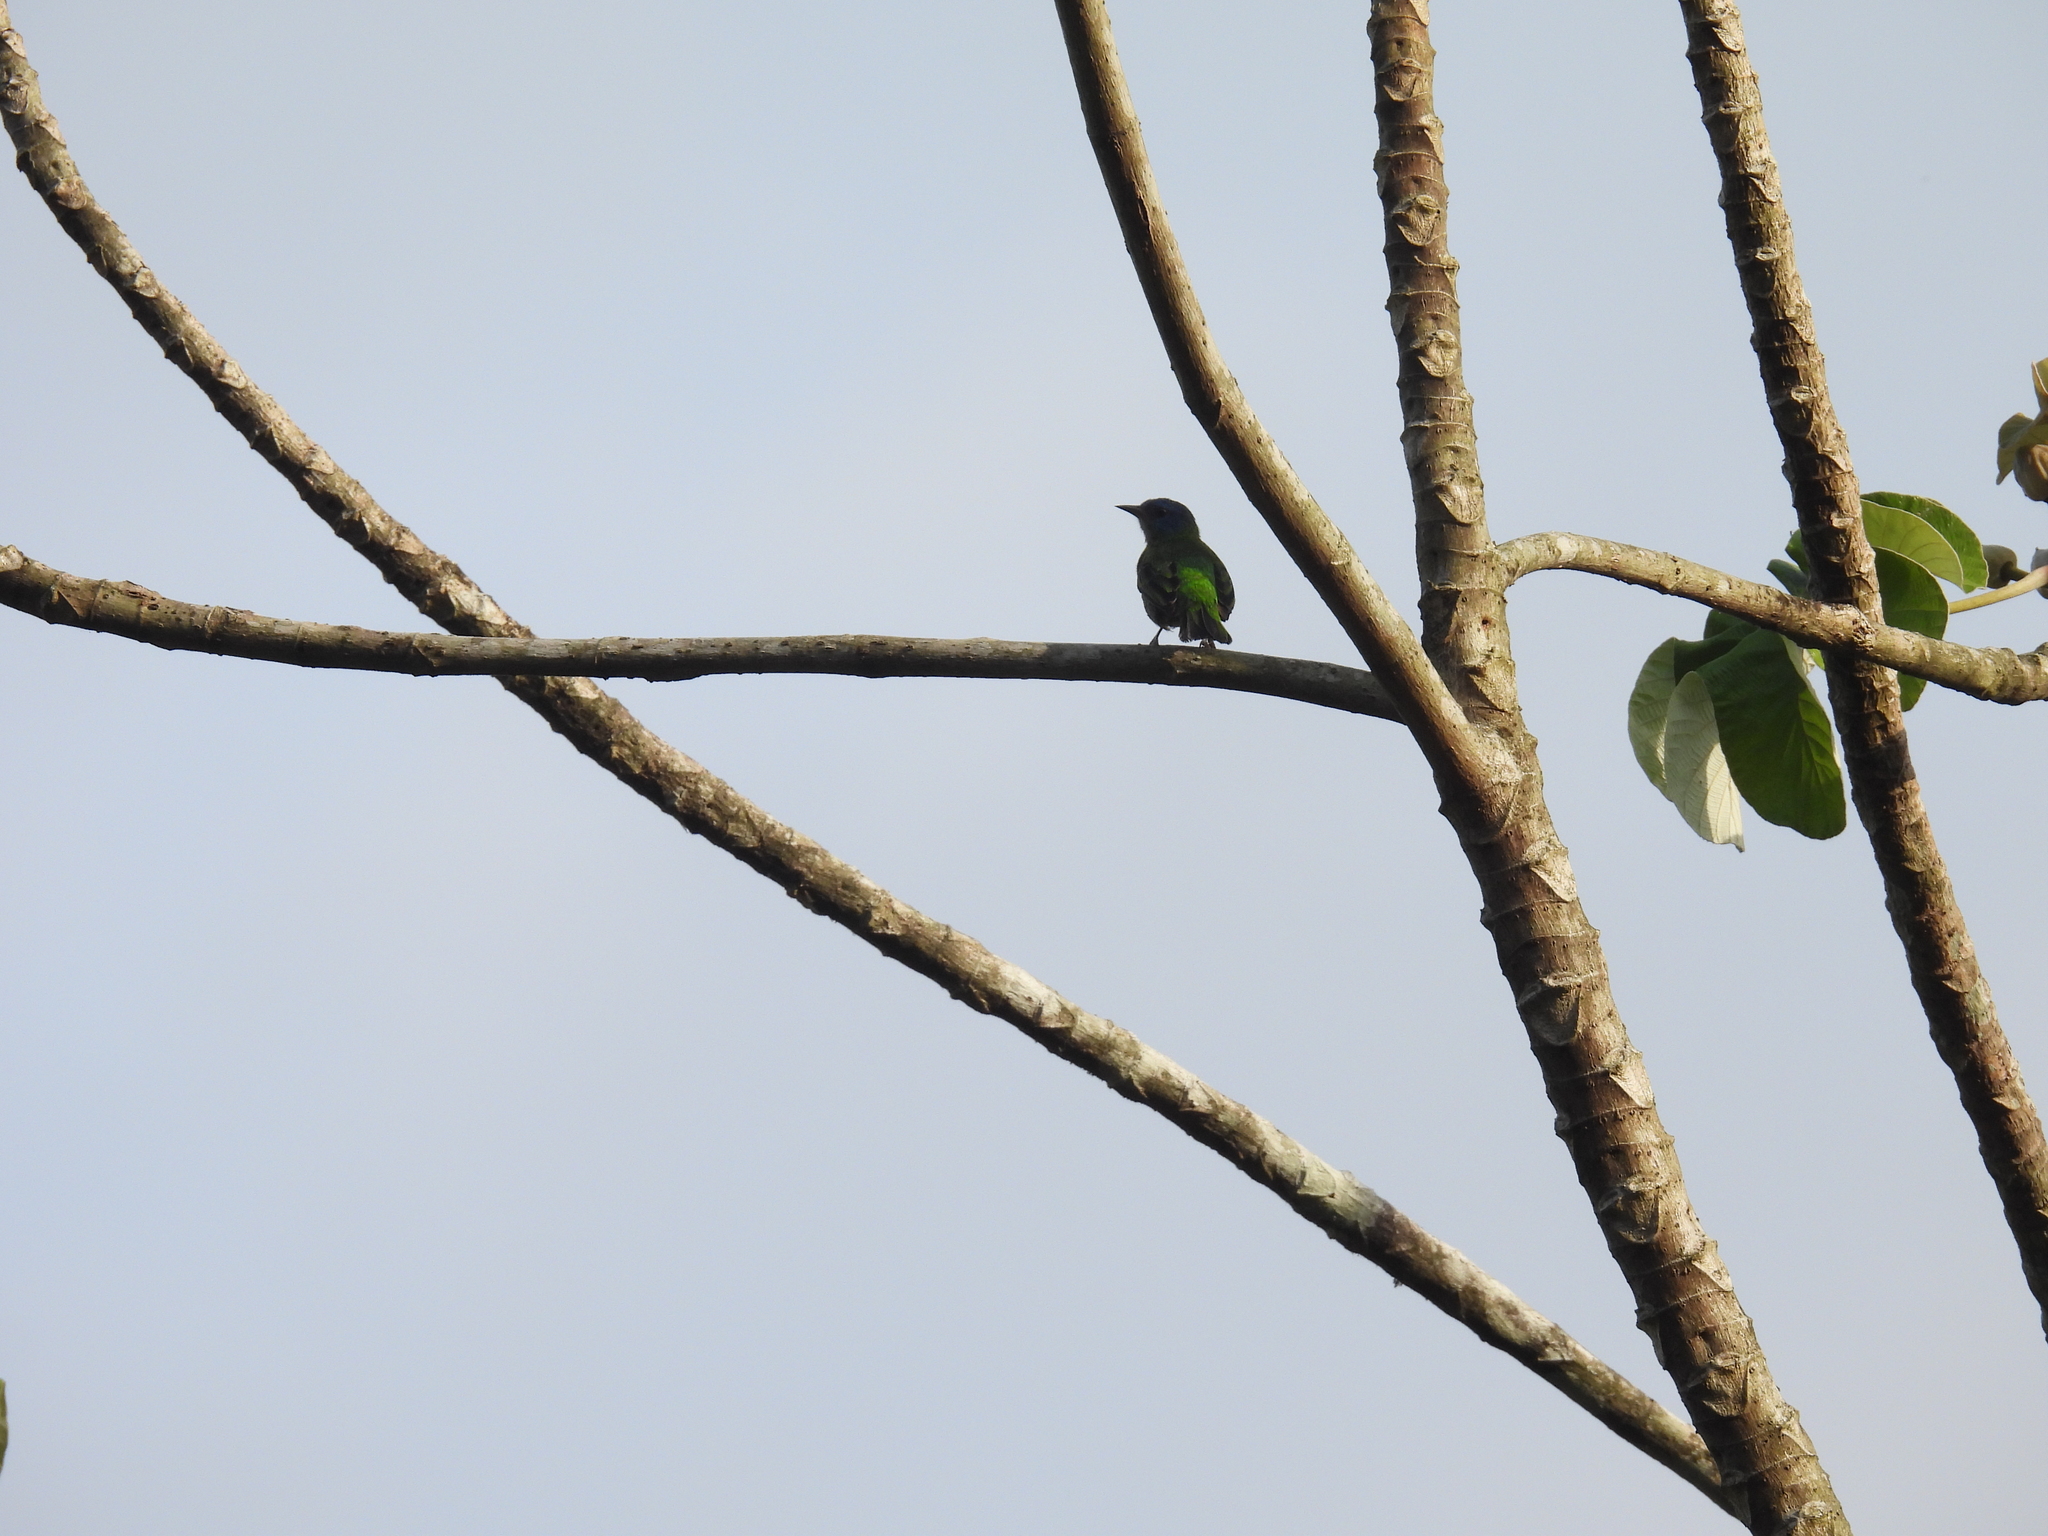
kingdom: Animalia
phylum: Chordata
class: Aves
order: Passeriformes
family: Thraupidae
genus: Dacnis
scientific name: Dacnis cayana
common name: Blue dacnis
